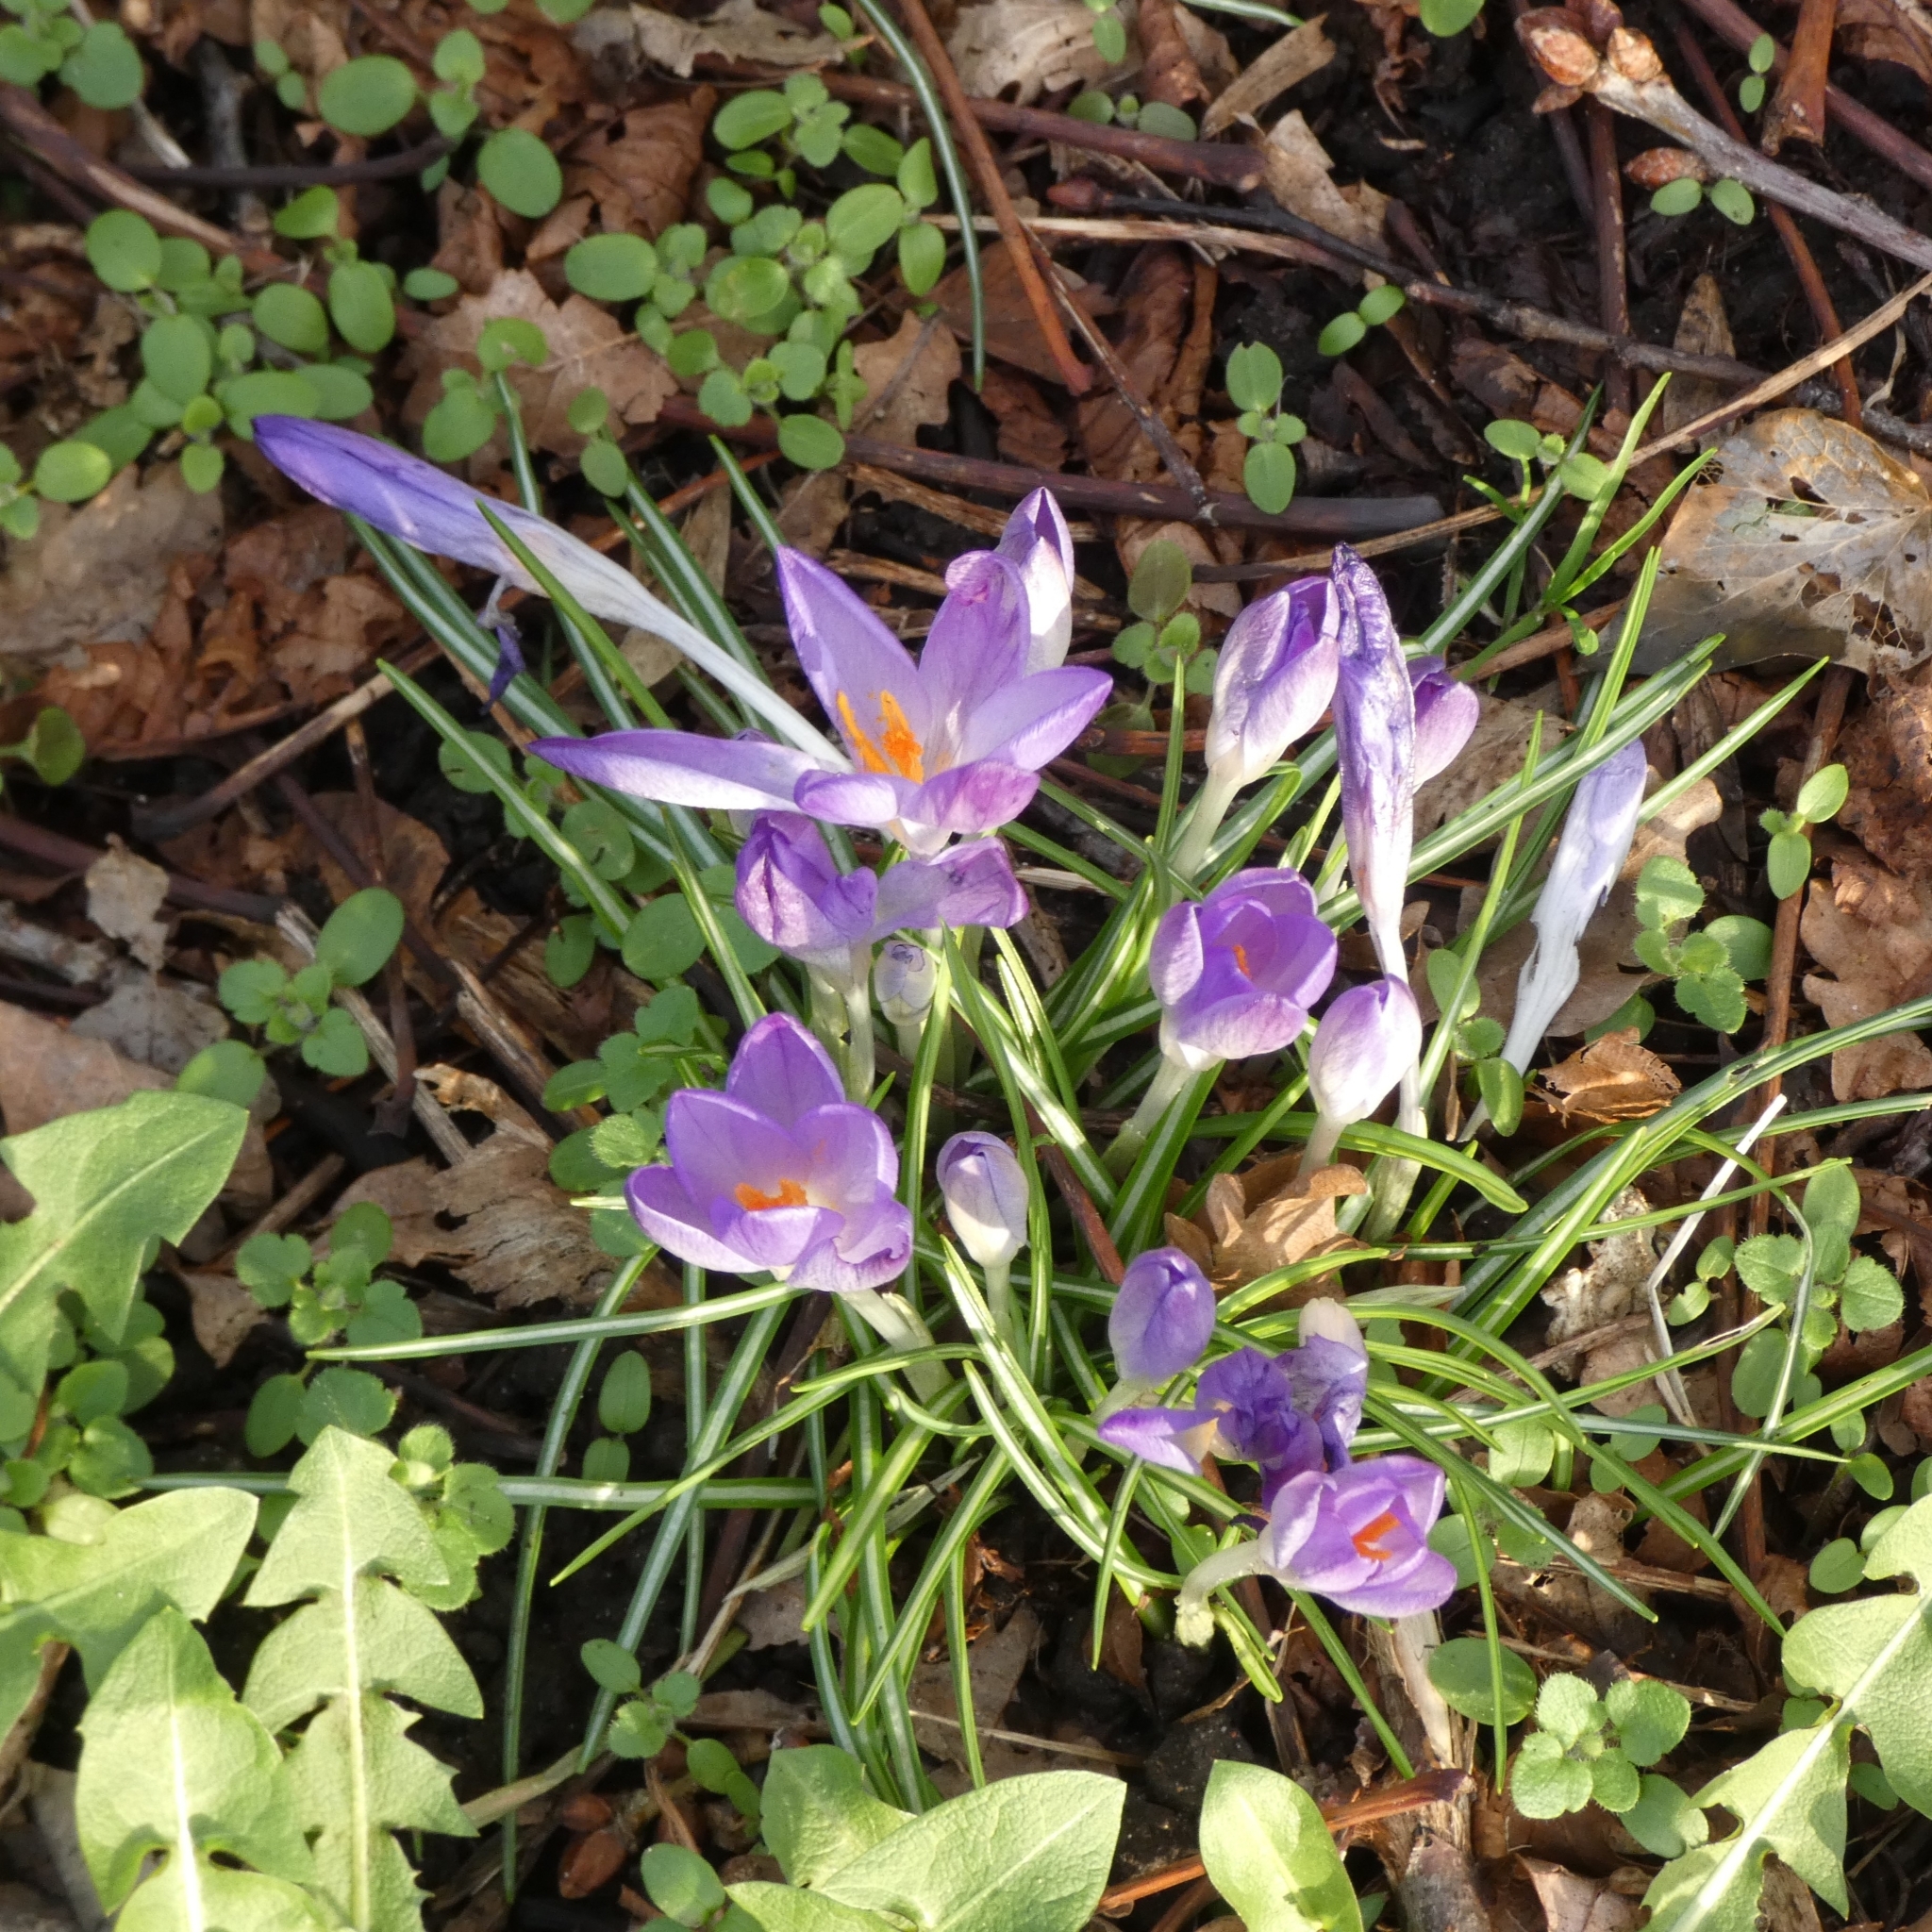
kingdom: Plantae
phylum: Tracheophyta
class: Liliopsida
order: Asparagales
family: Iridaceae
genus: Crocus
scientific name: Crocus tommasinianus
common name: Early crocus
